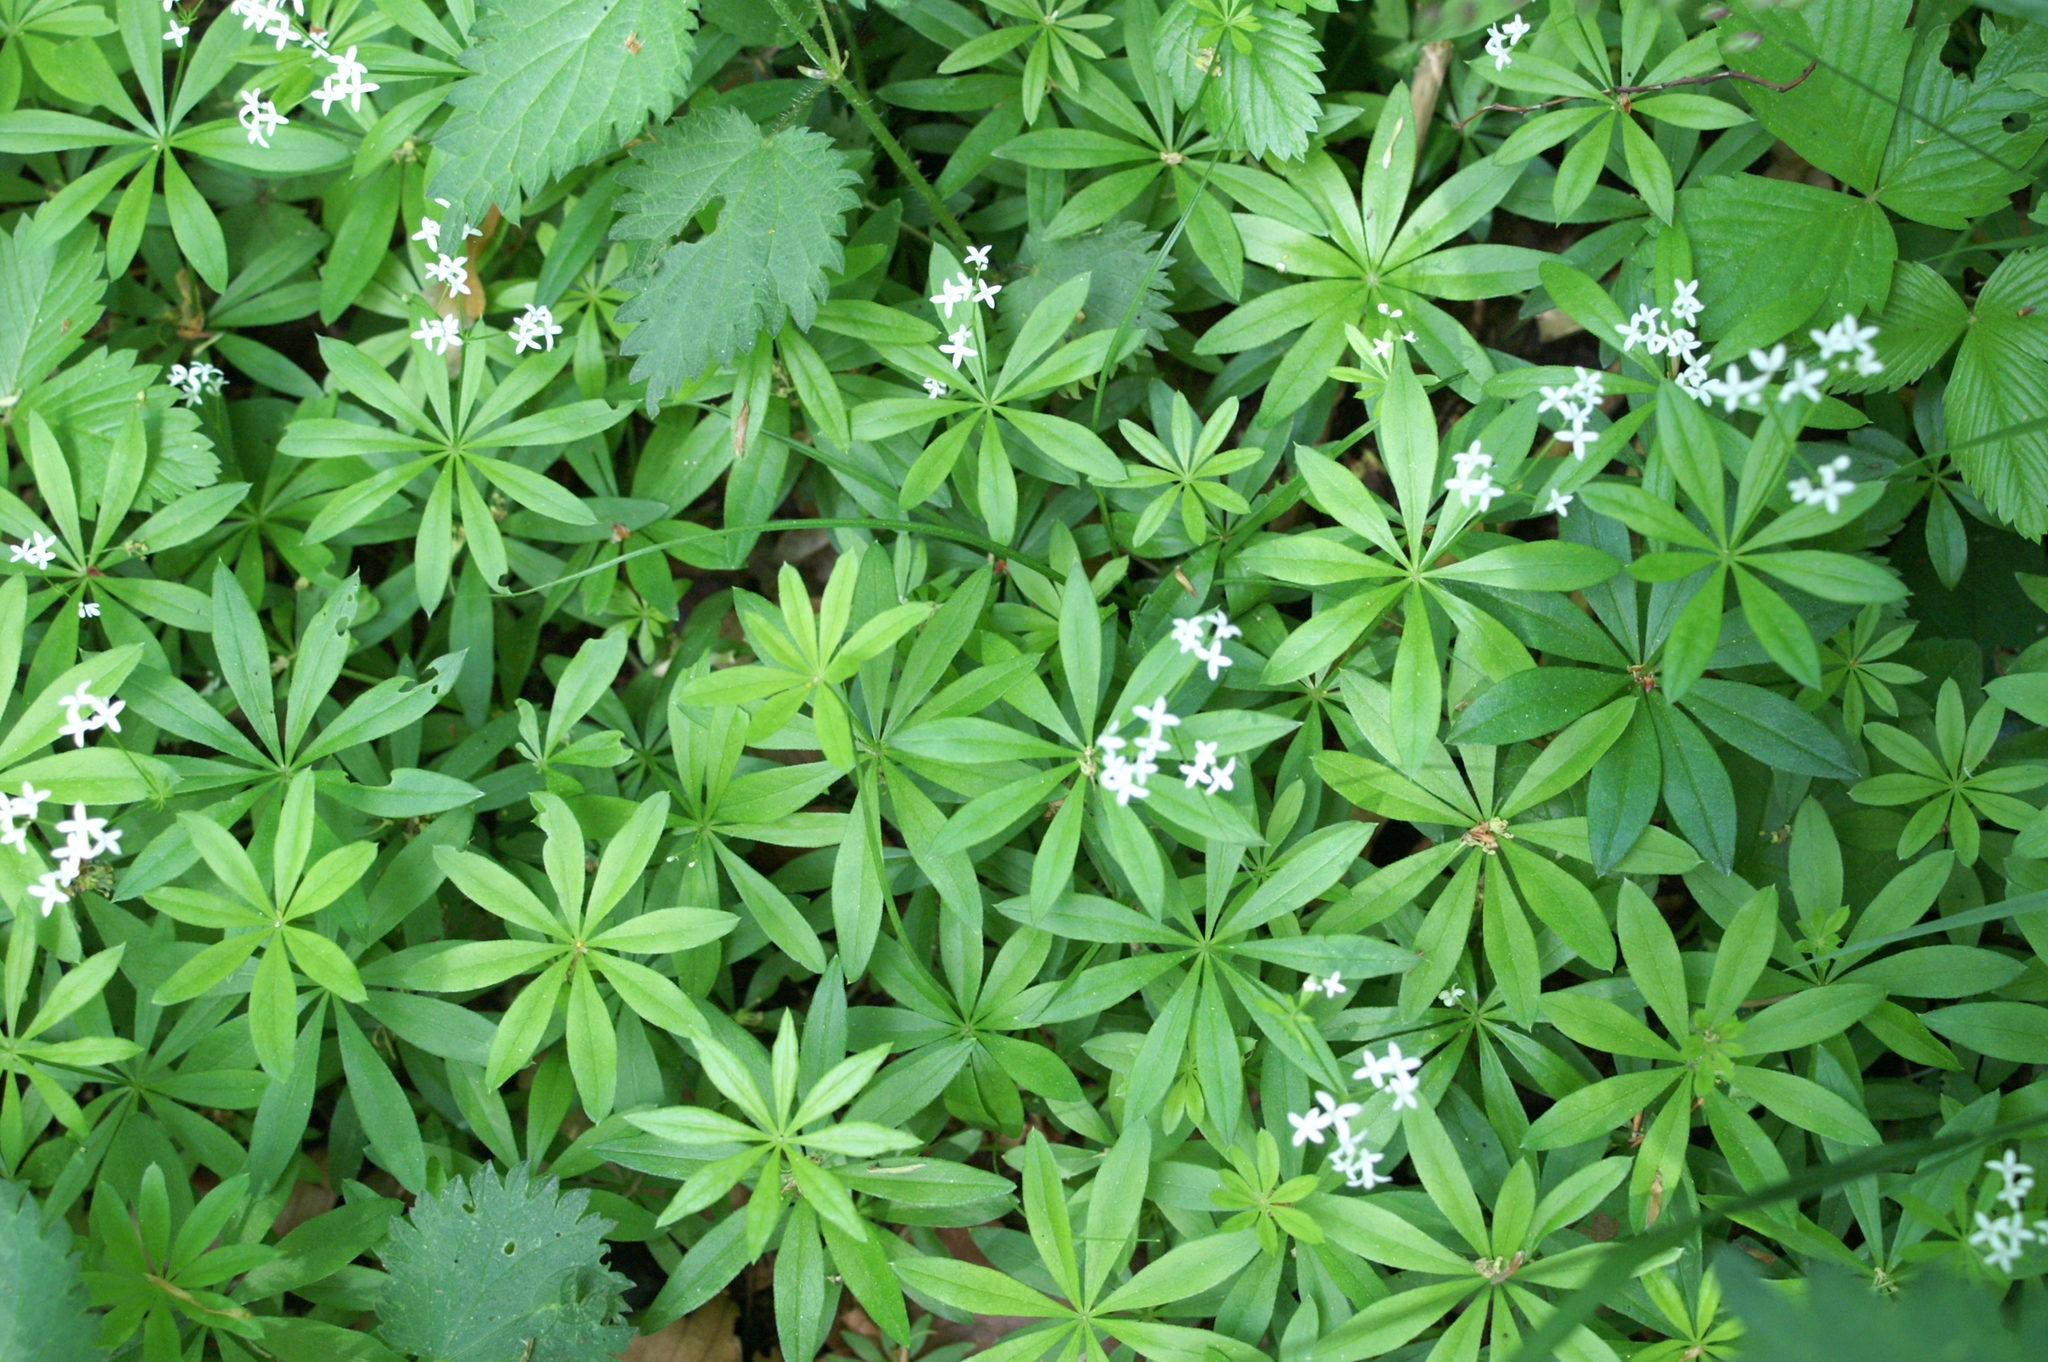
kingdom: Plantae
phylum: Tracheophyta
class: Magnoliopsida
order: Gentianales
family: Rubiaceae
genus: Galium
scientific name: Galium odoratum
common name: Sweet woodruff
